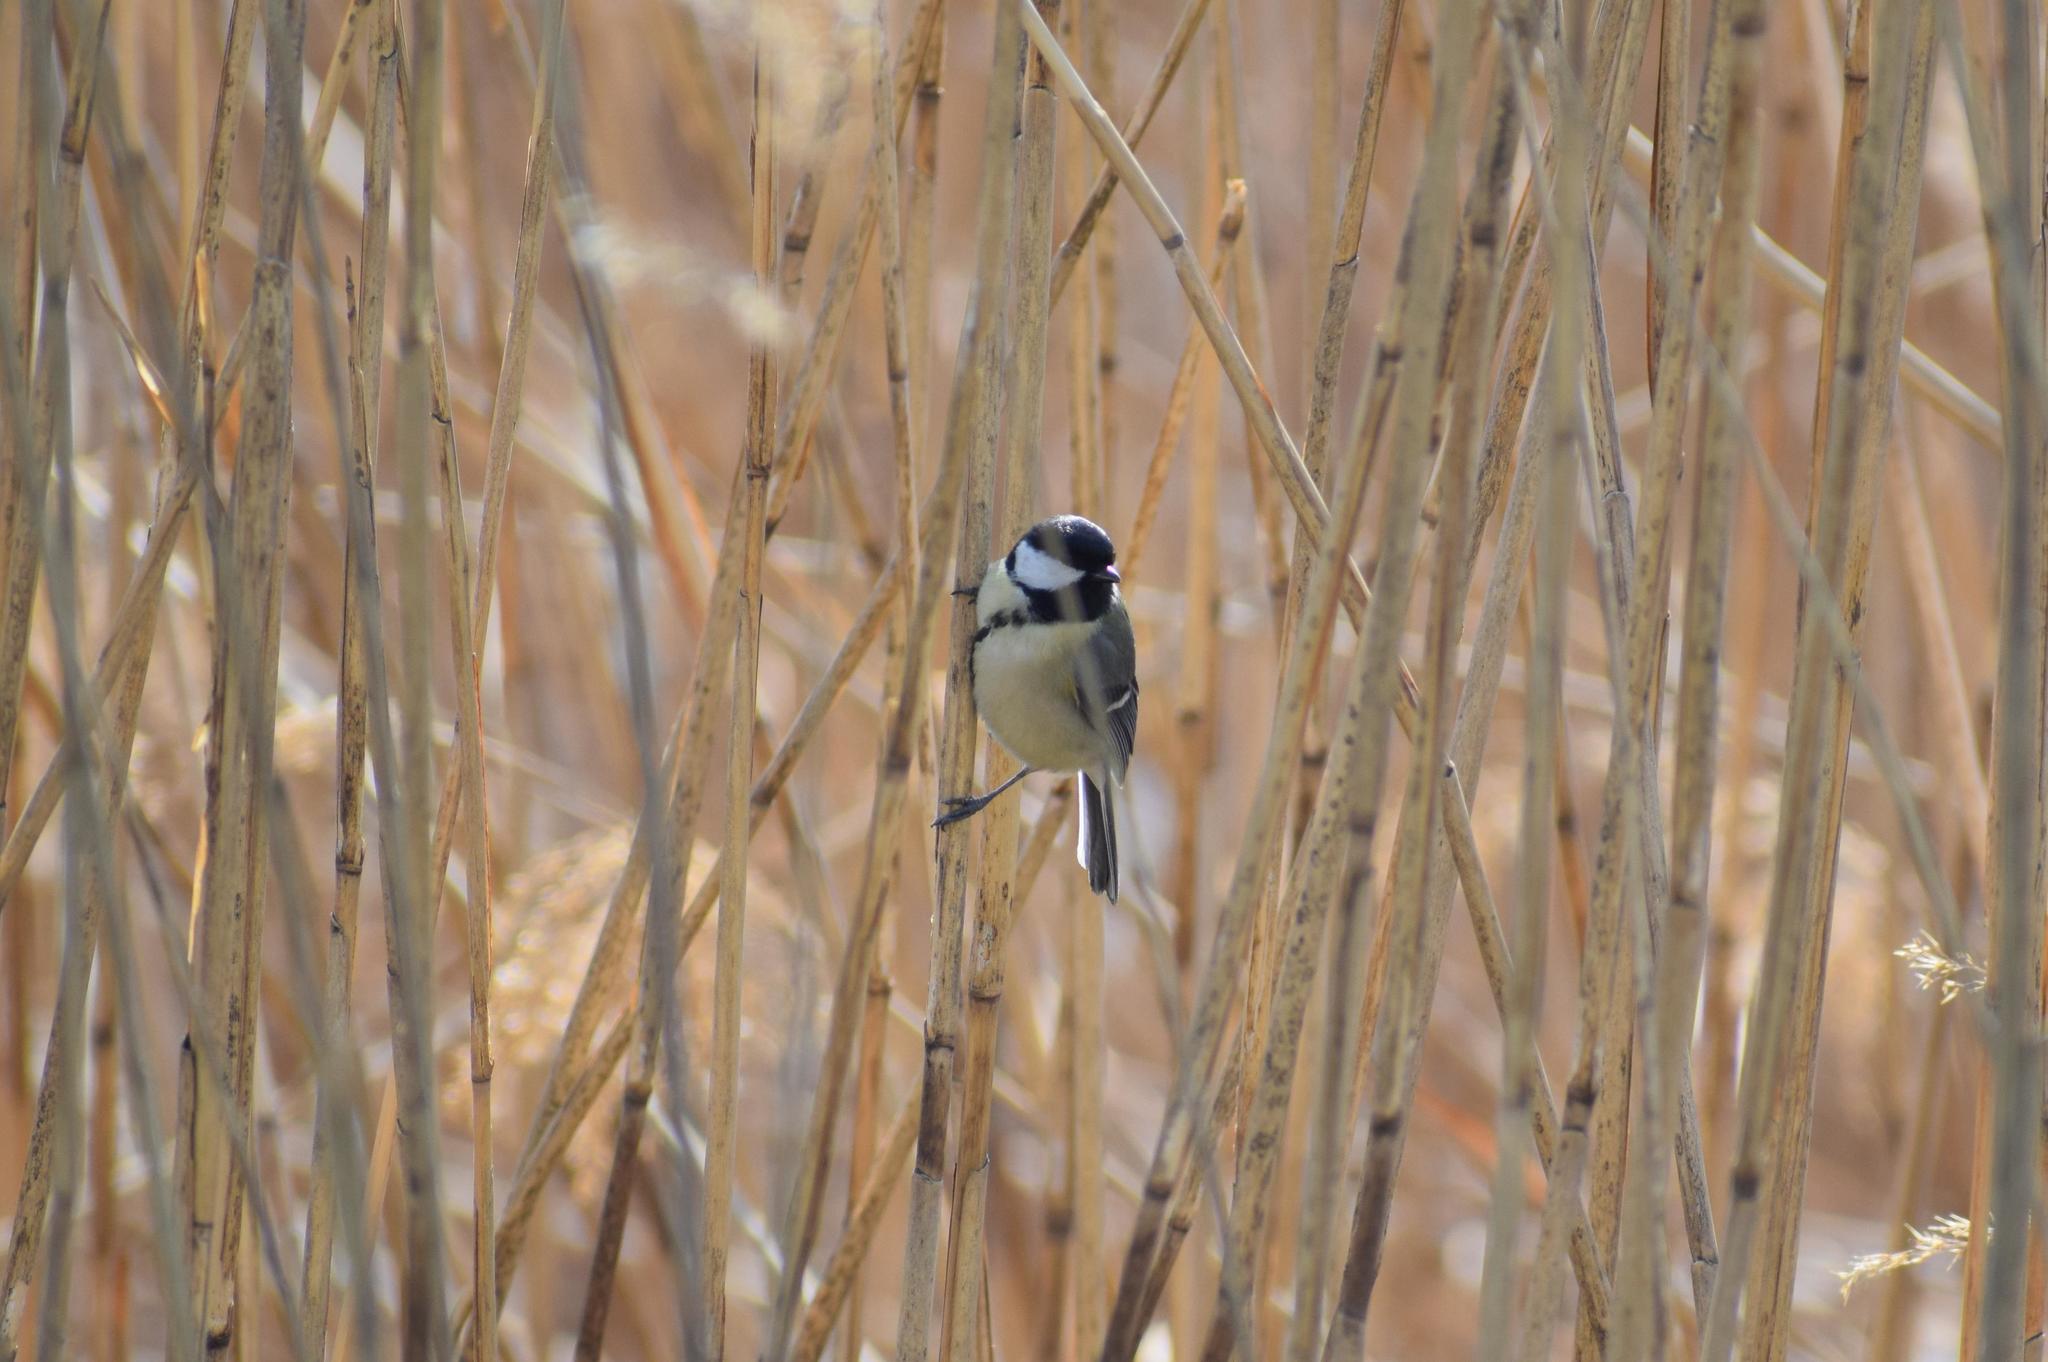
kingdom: Animalia
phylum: Chordata
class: Aves
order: Passeriformes
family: Paridae
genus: Parus
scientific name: Parus major
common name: Great tit
